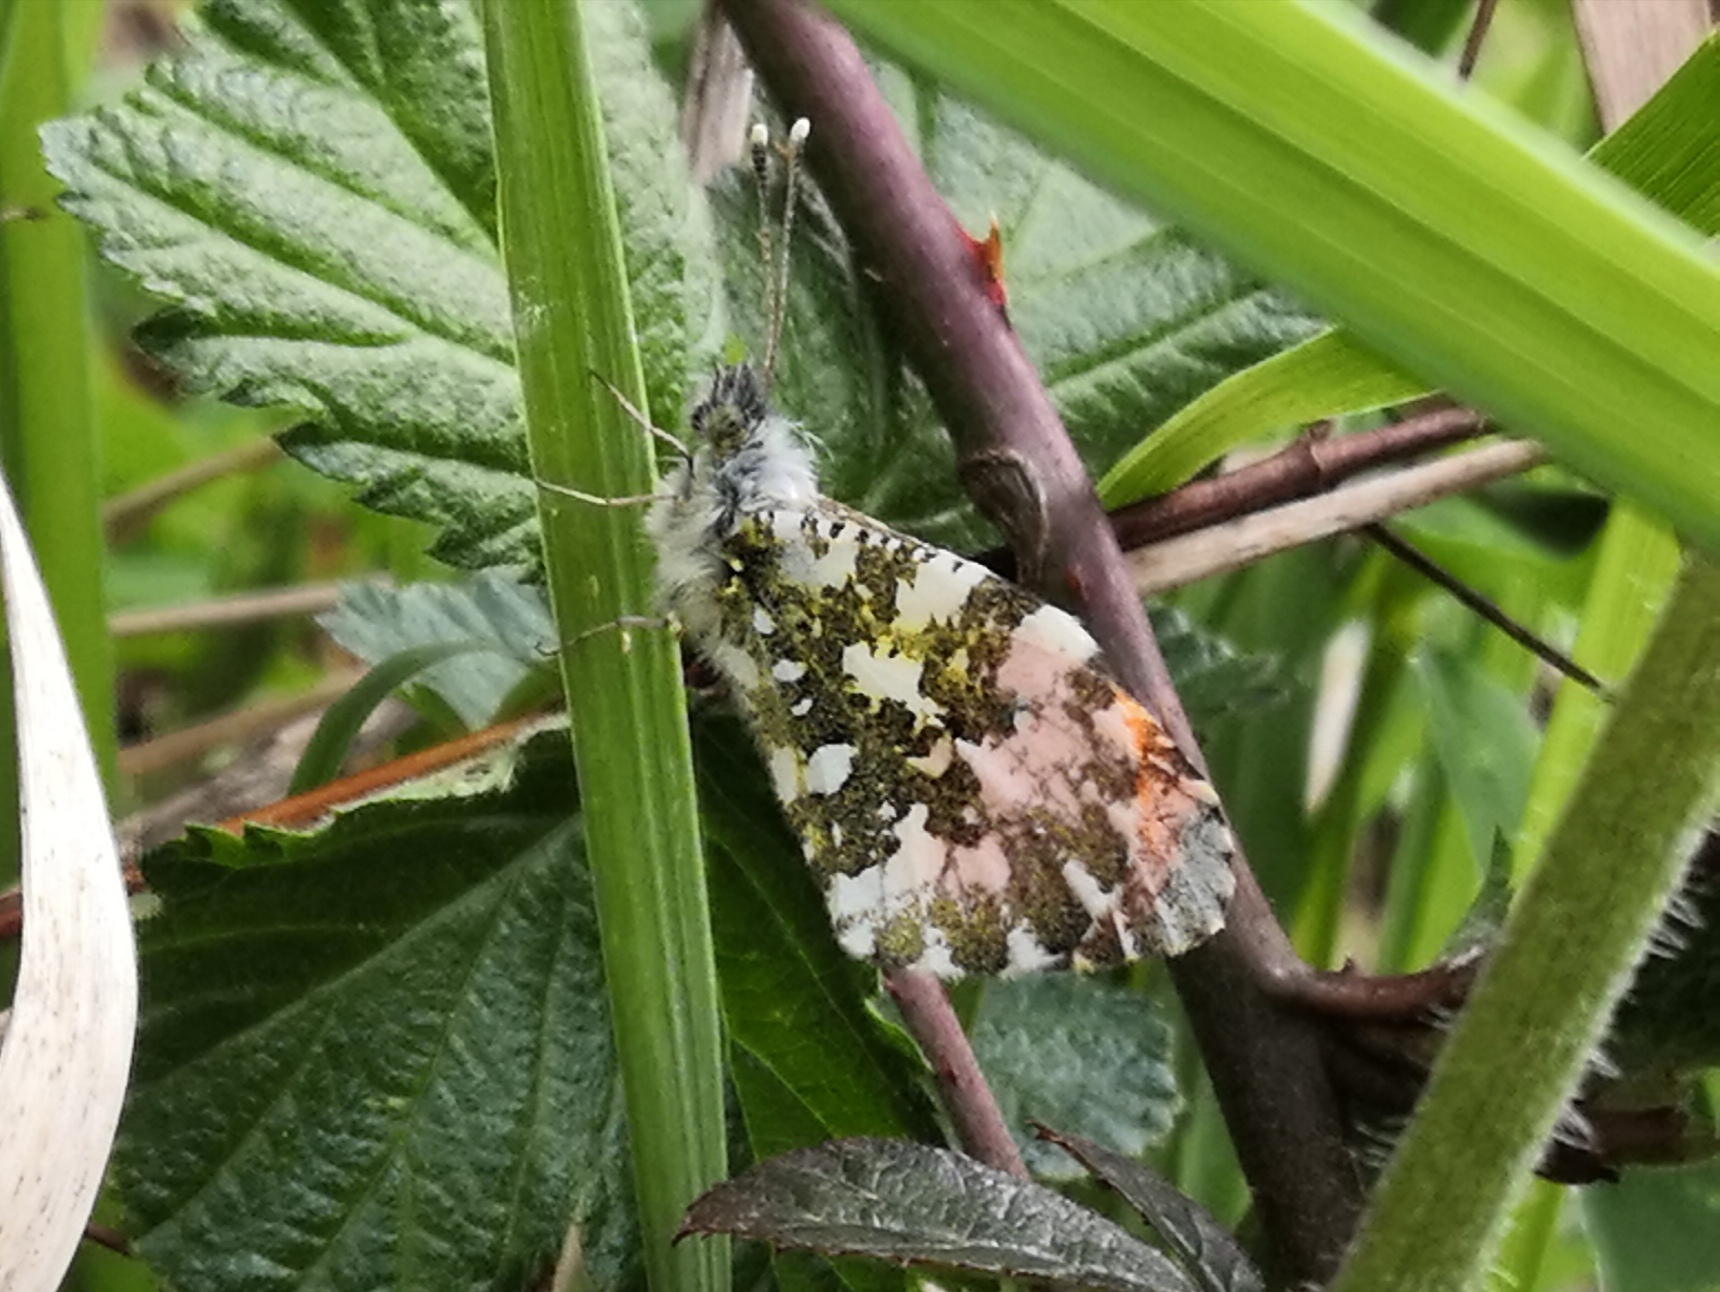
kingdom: Animalia
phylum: Arthropoda
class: Insecta
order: Lepidoptera
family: Pieridae
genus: Anthocharis
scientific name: Anthocharis cardamines
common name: Orange-tip
